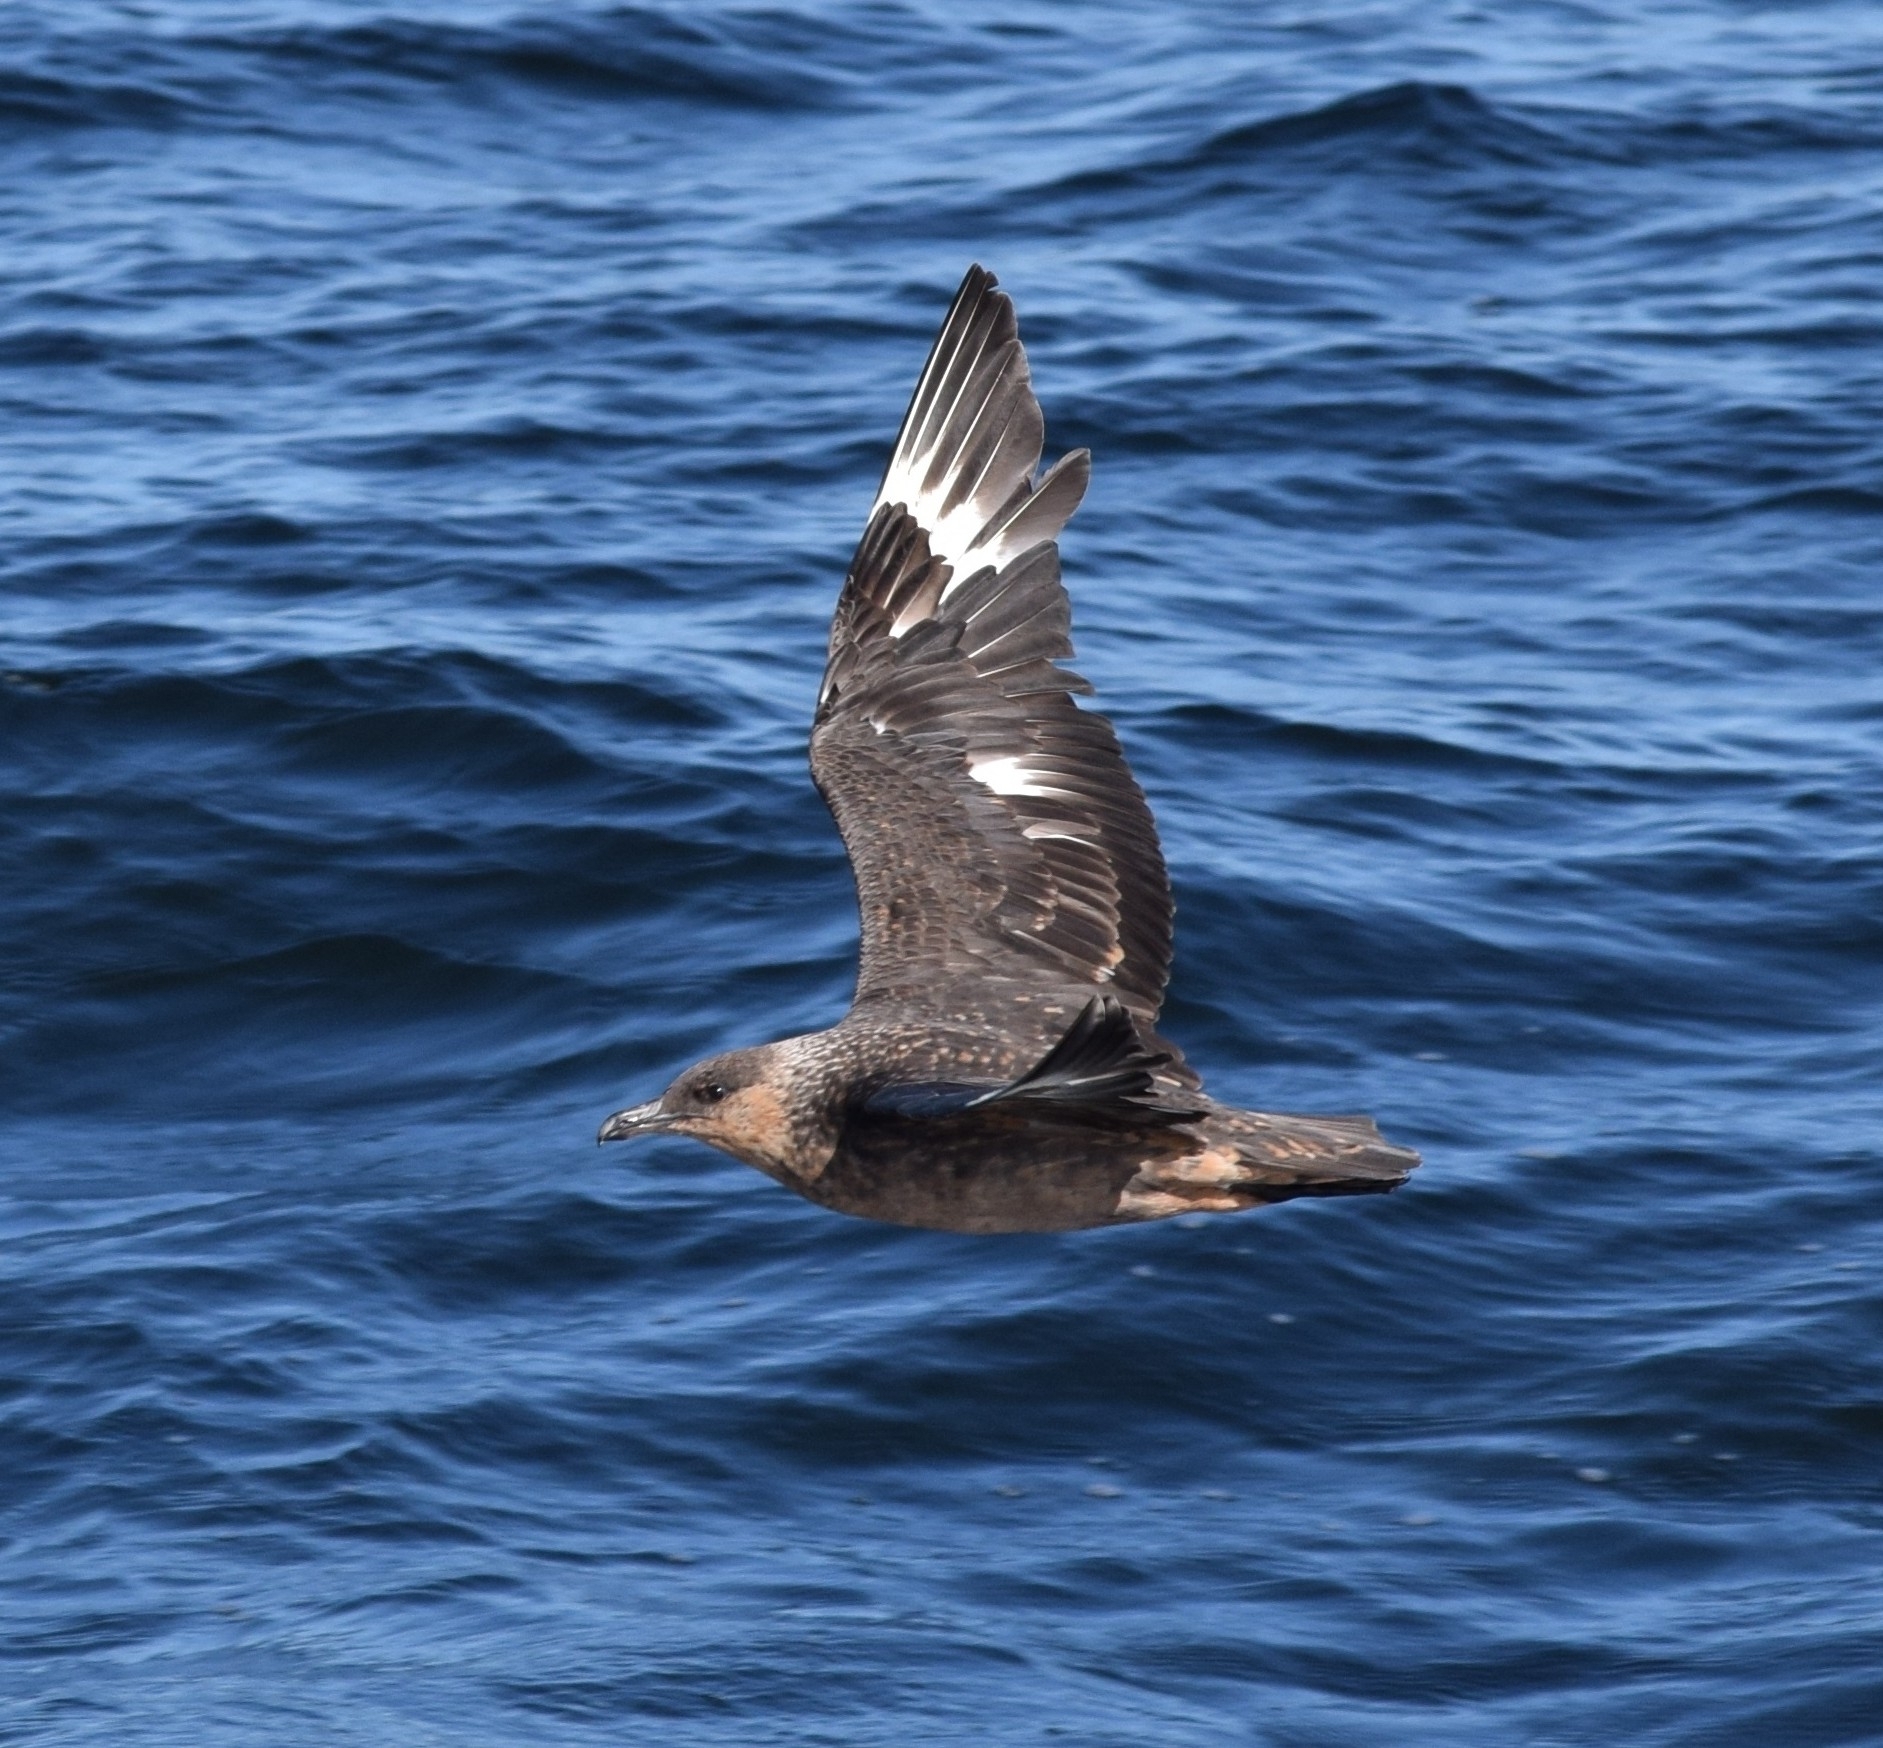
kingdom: Animalia
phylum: Chordata
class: Aves
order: Charadriiformes
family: Stercorariidae
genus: Stercorarius
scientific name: Stercorarius chilensis
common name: Chilean skua
